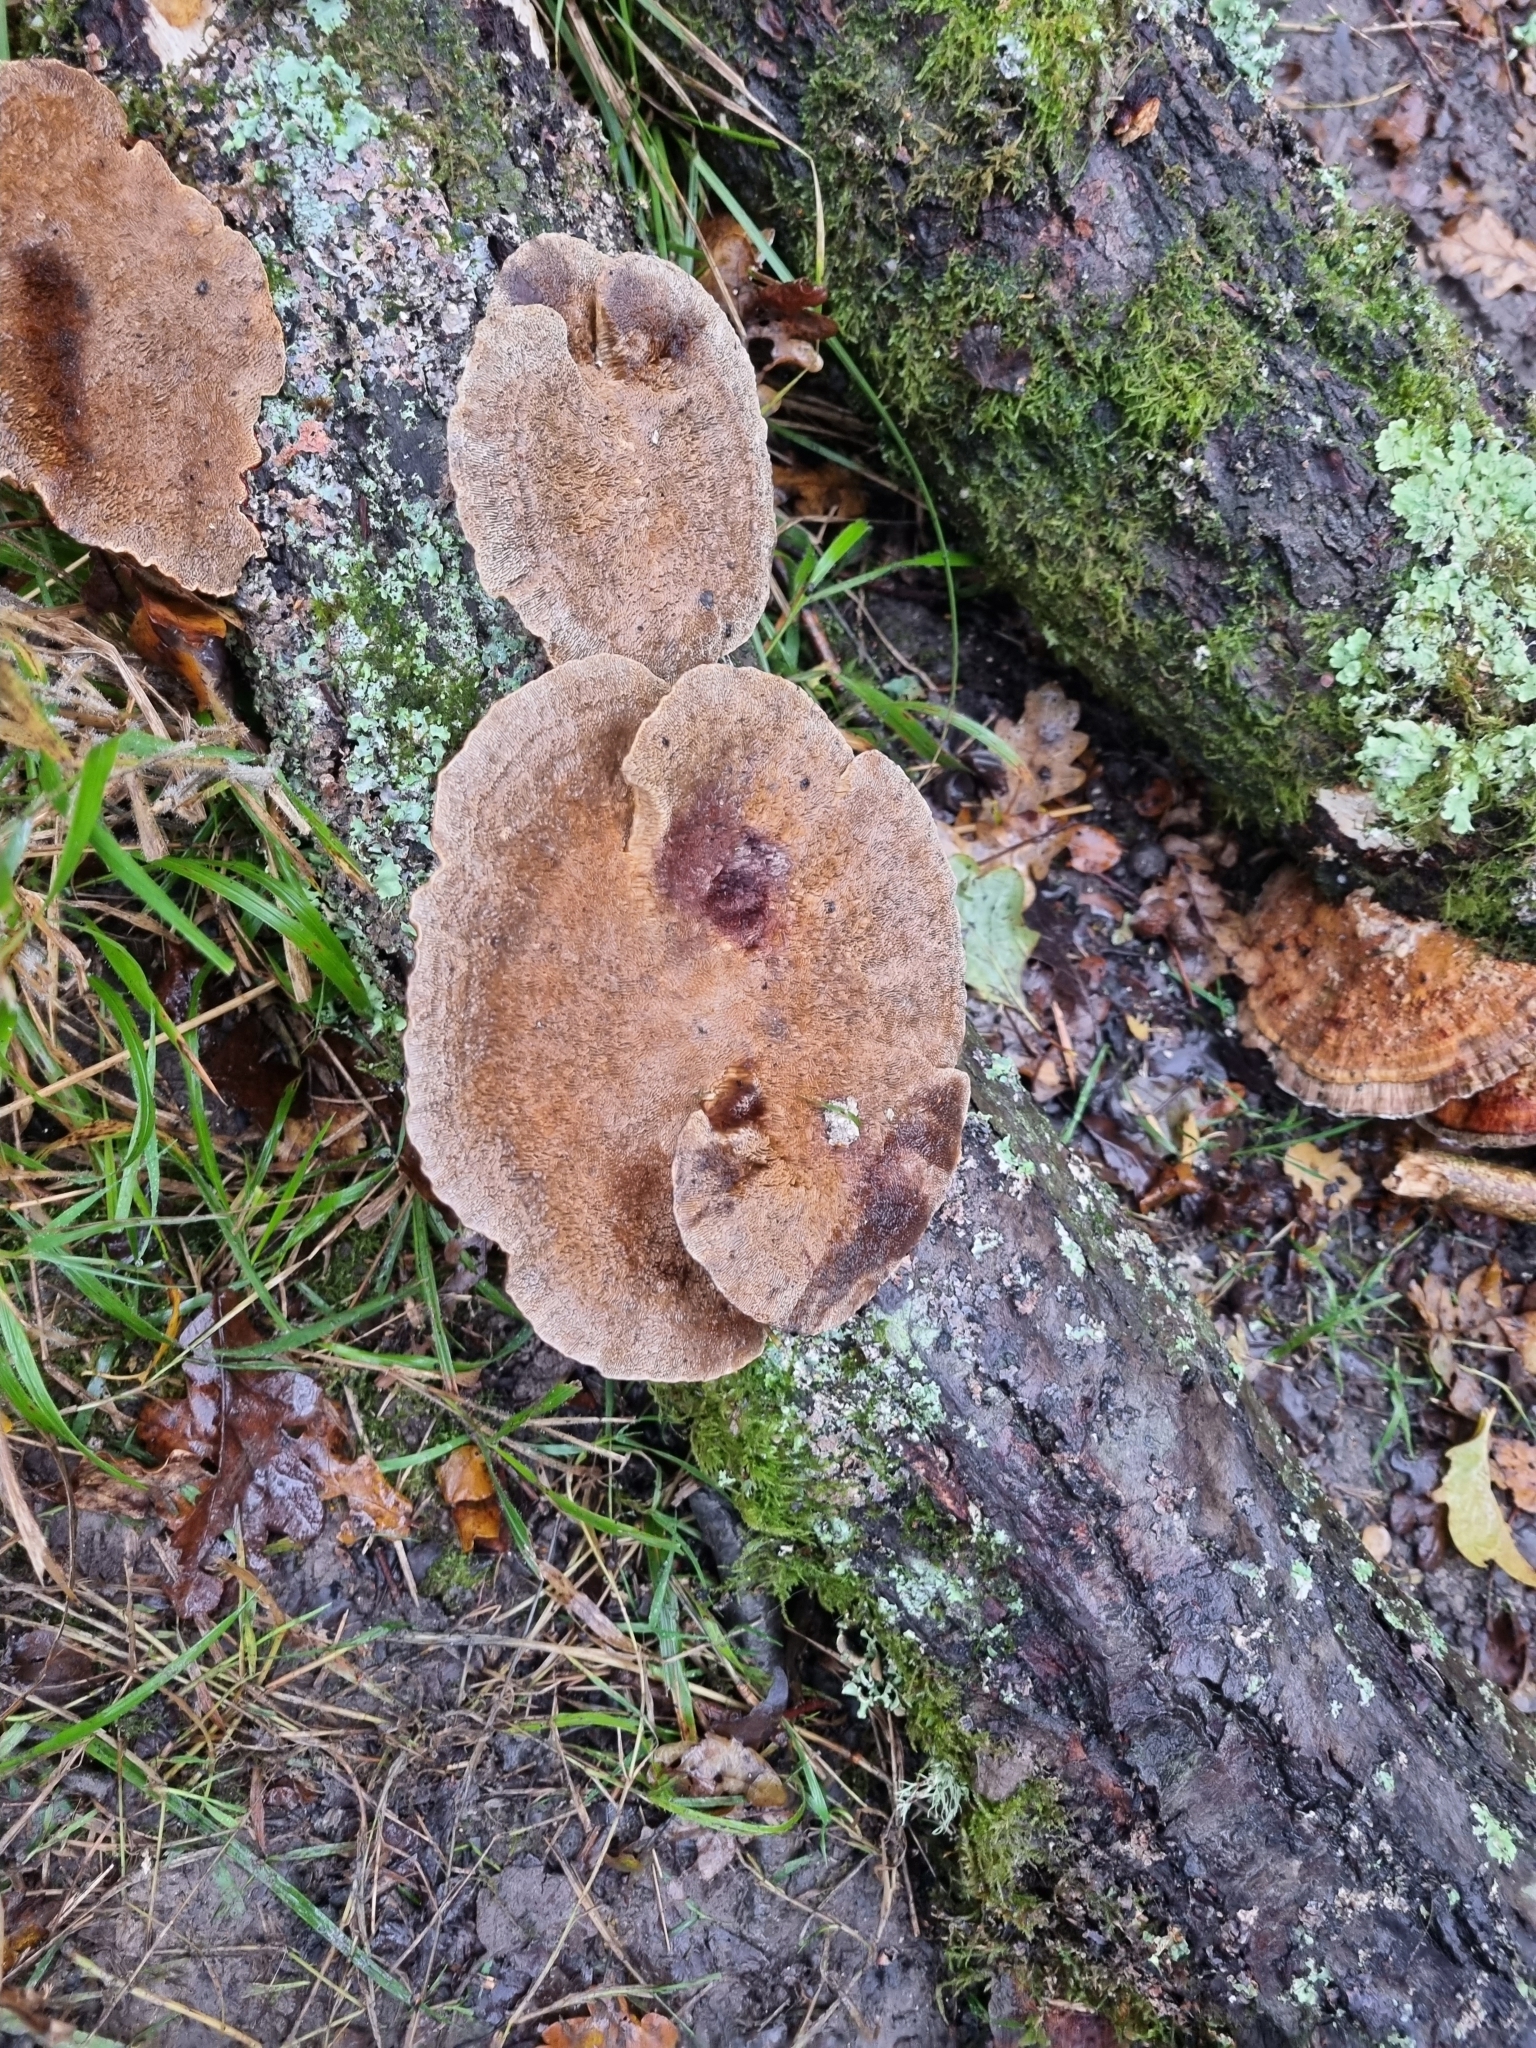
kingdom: Fungi
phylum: Basidiomycota
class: Agaricomycetes
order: Polyporales
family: Polyporaceae
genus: Daedaleopsis
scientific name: Daedaleopsis confragosa
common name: Blushing bracket
